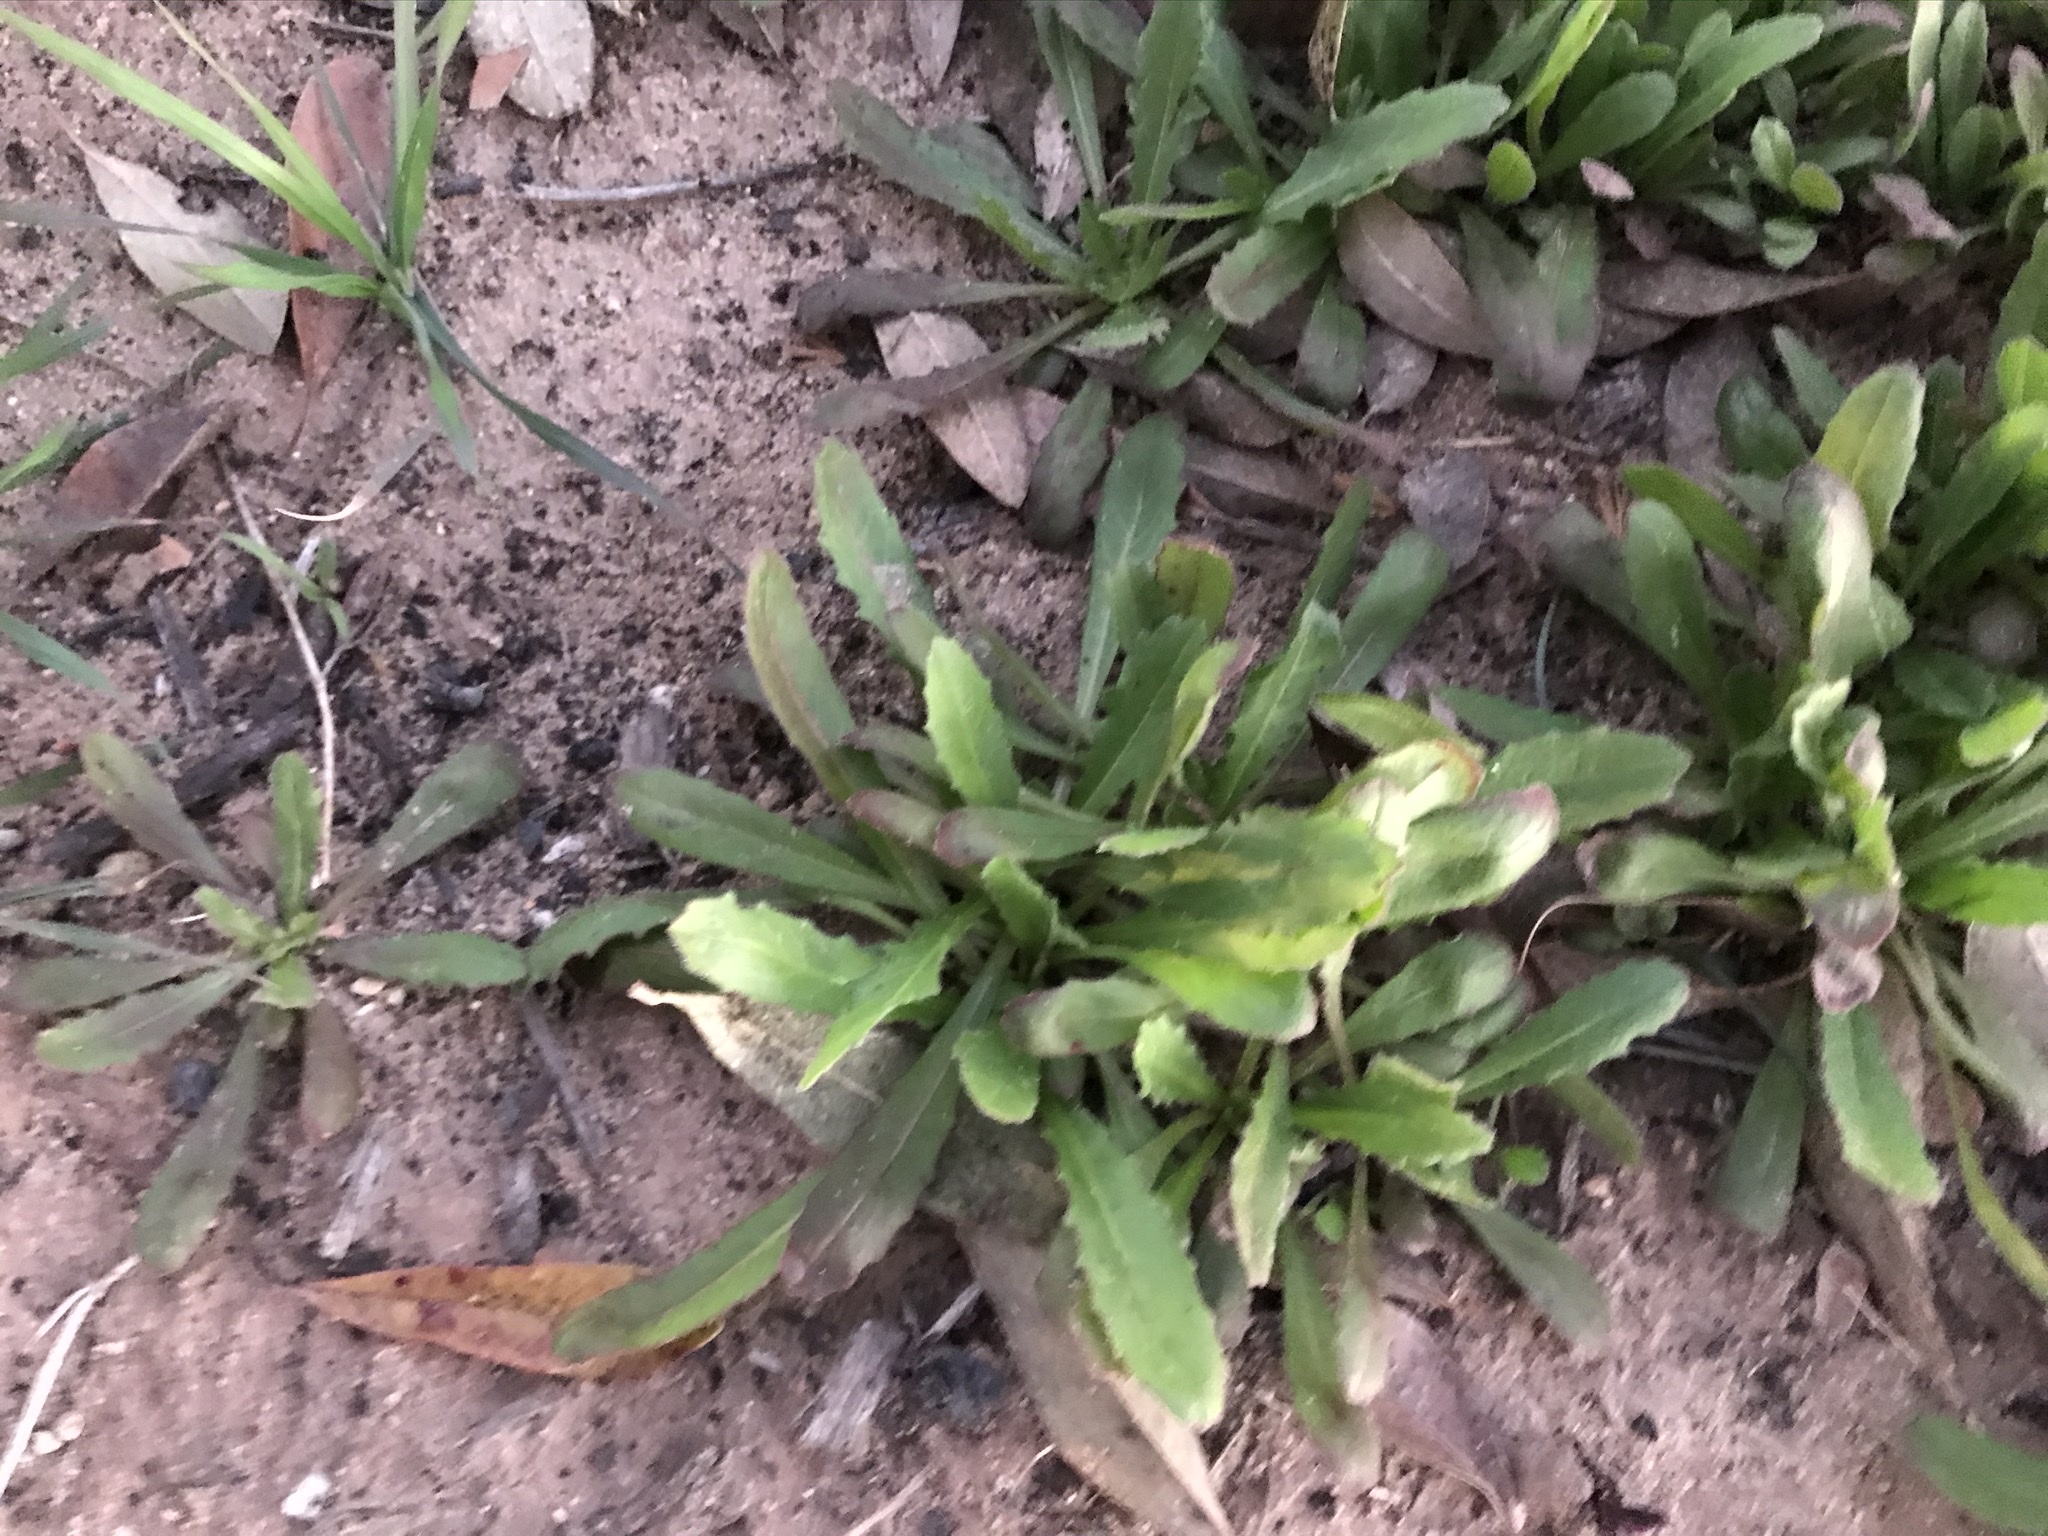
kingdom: Plantae
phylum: Tracheophyta
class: Magnoliopsida
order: Asterales
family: Asteraceae
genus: Hedypnois
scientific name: Hedypnois rhagadioloides
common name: Cretan weed
